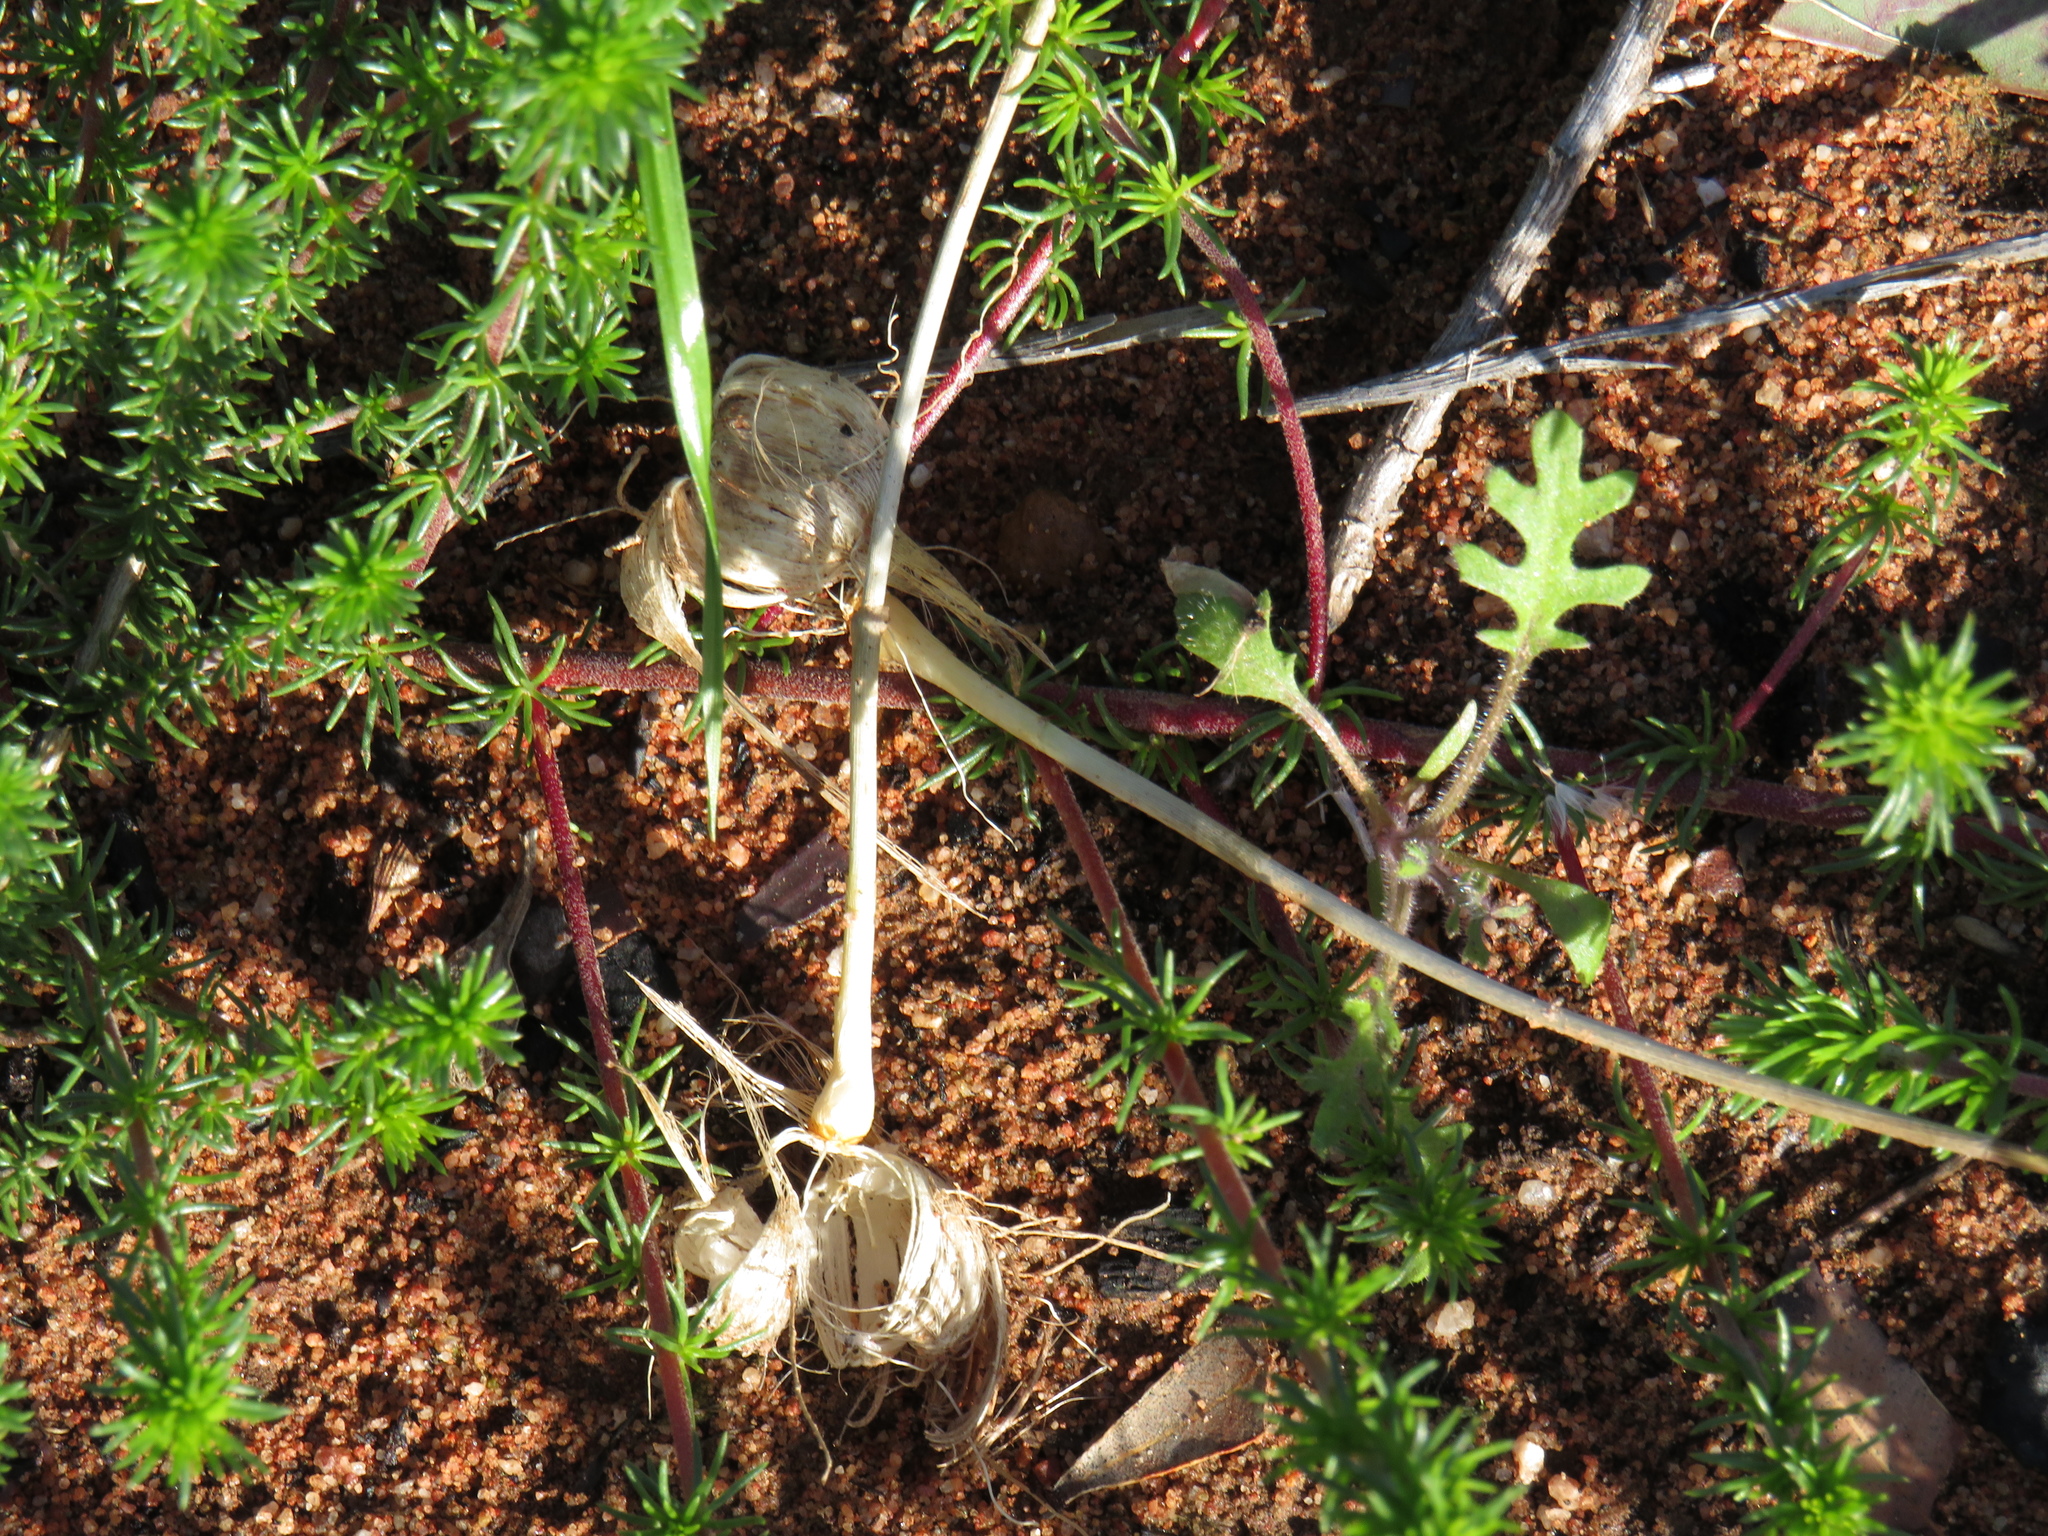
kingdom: Animalia
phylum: Chordata
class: Mammalia
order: Rodentia
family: Hystricidae
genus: Hystrix
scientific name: Hystrix africaeaustralis
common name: Cape porcupine
